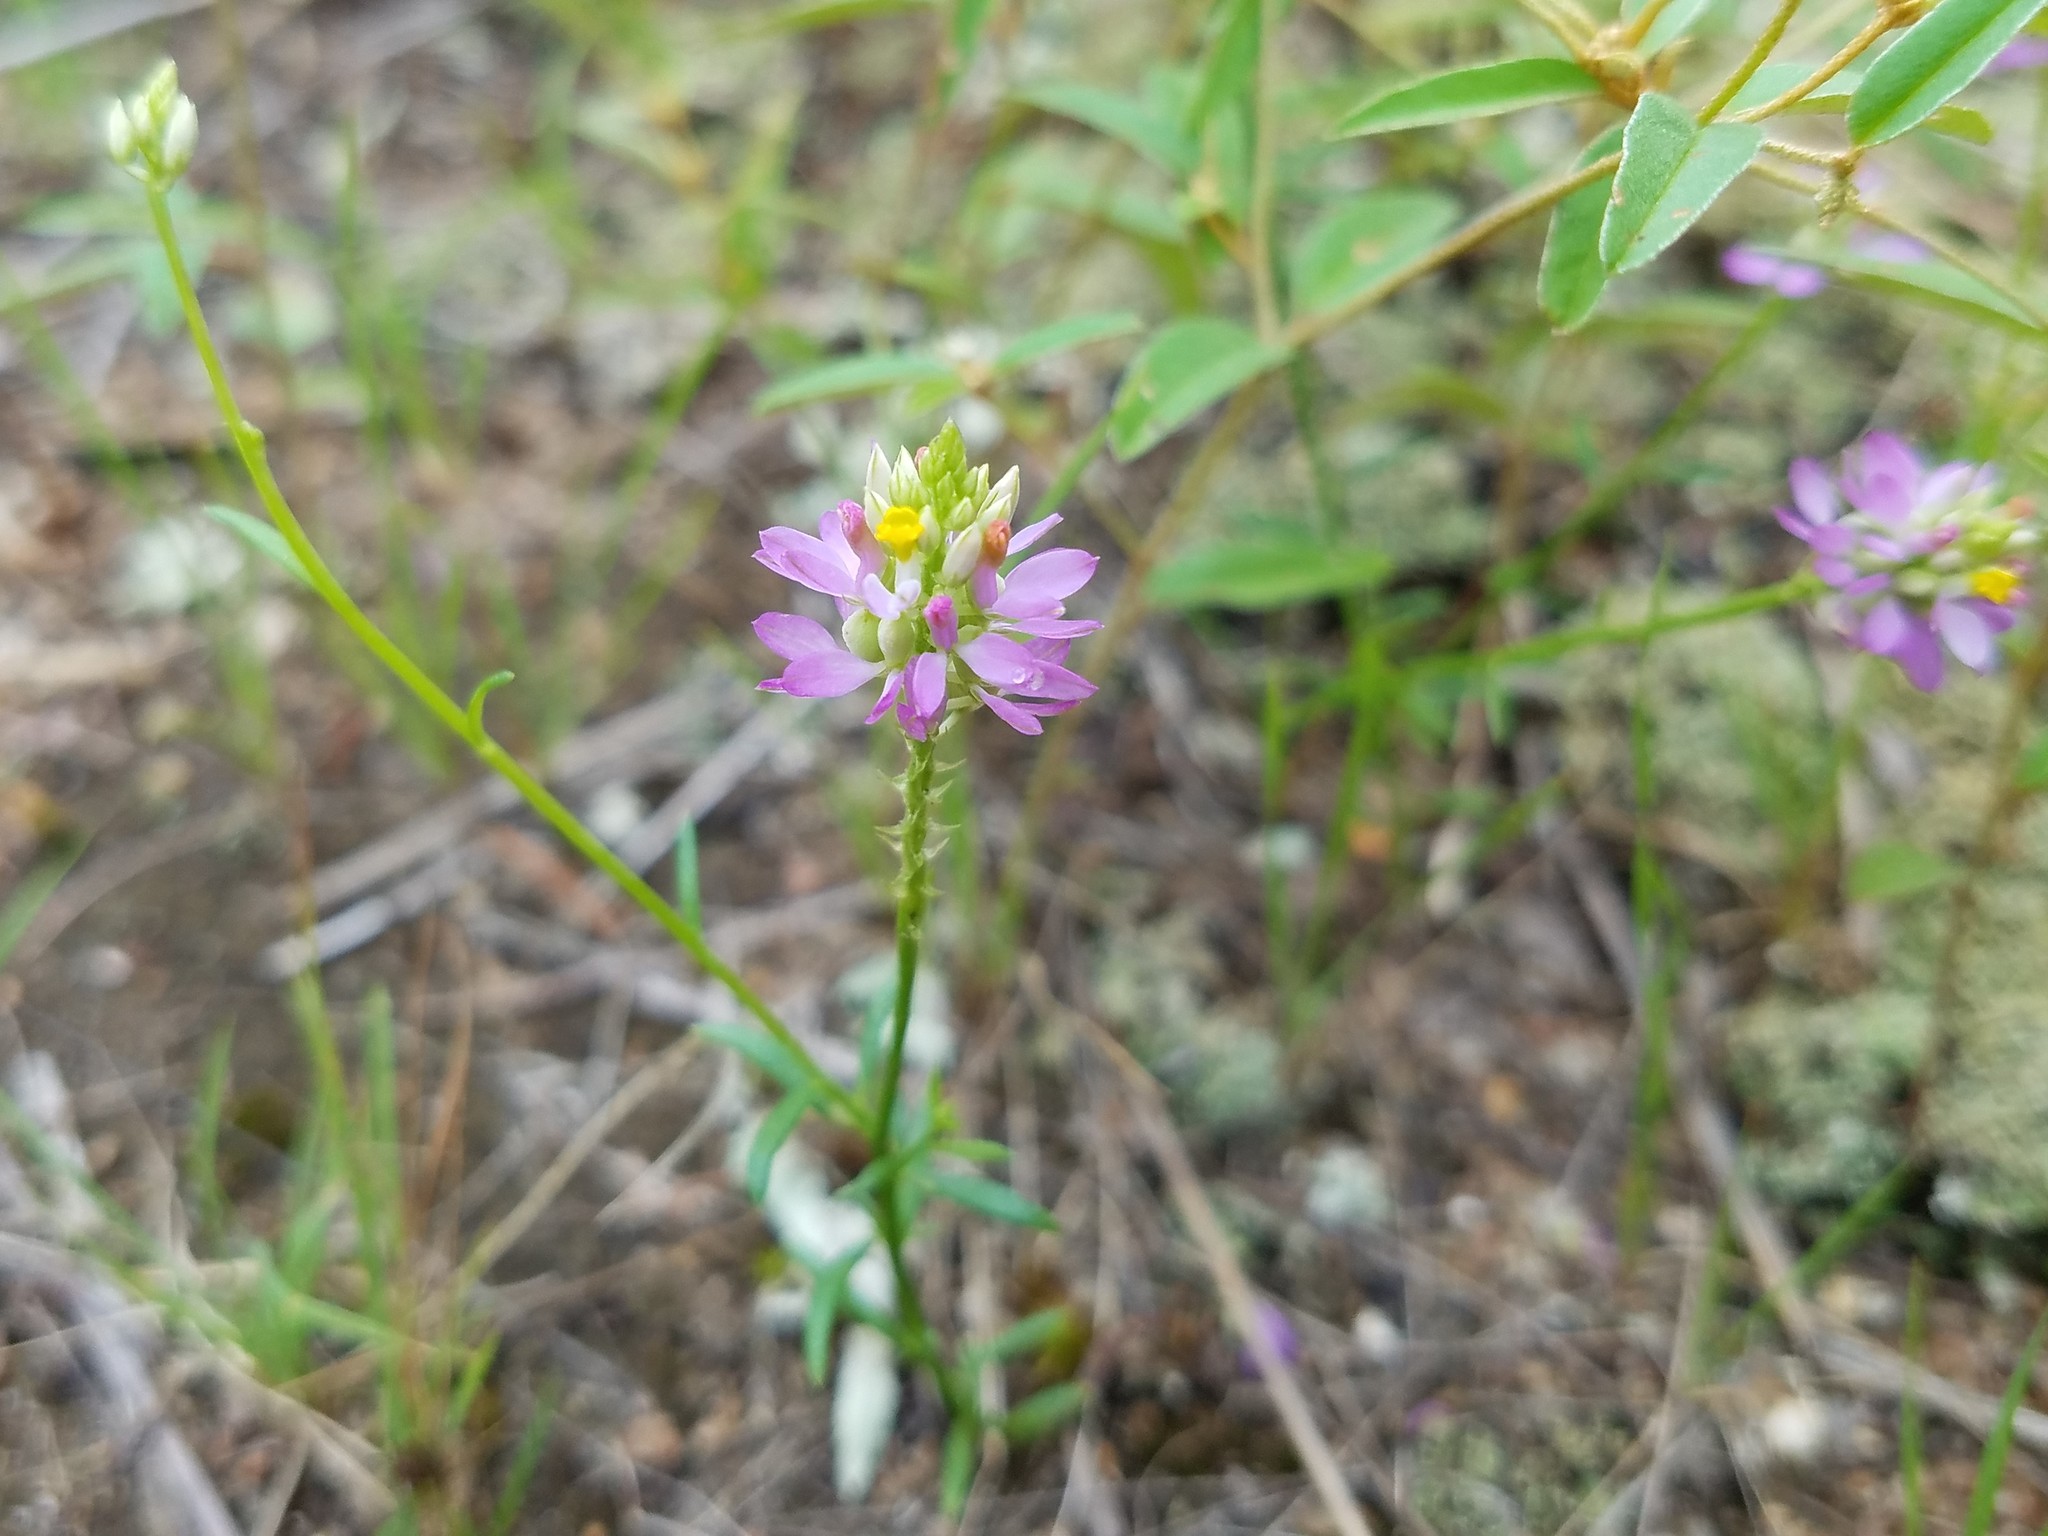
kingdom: Plantae
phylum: Tracheophyta
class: Magnoliopsida
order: Fabales
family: Polygalaceae
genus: Polygala
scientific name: Polygala curtissii
